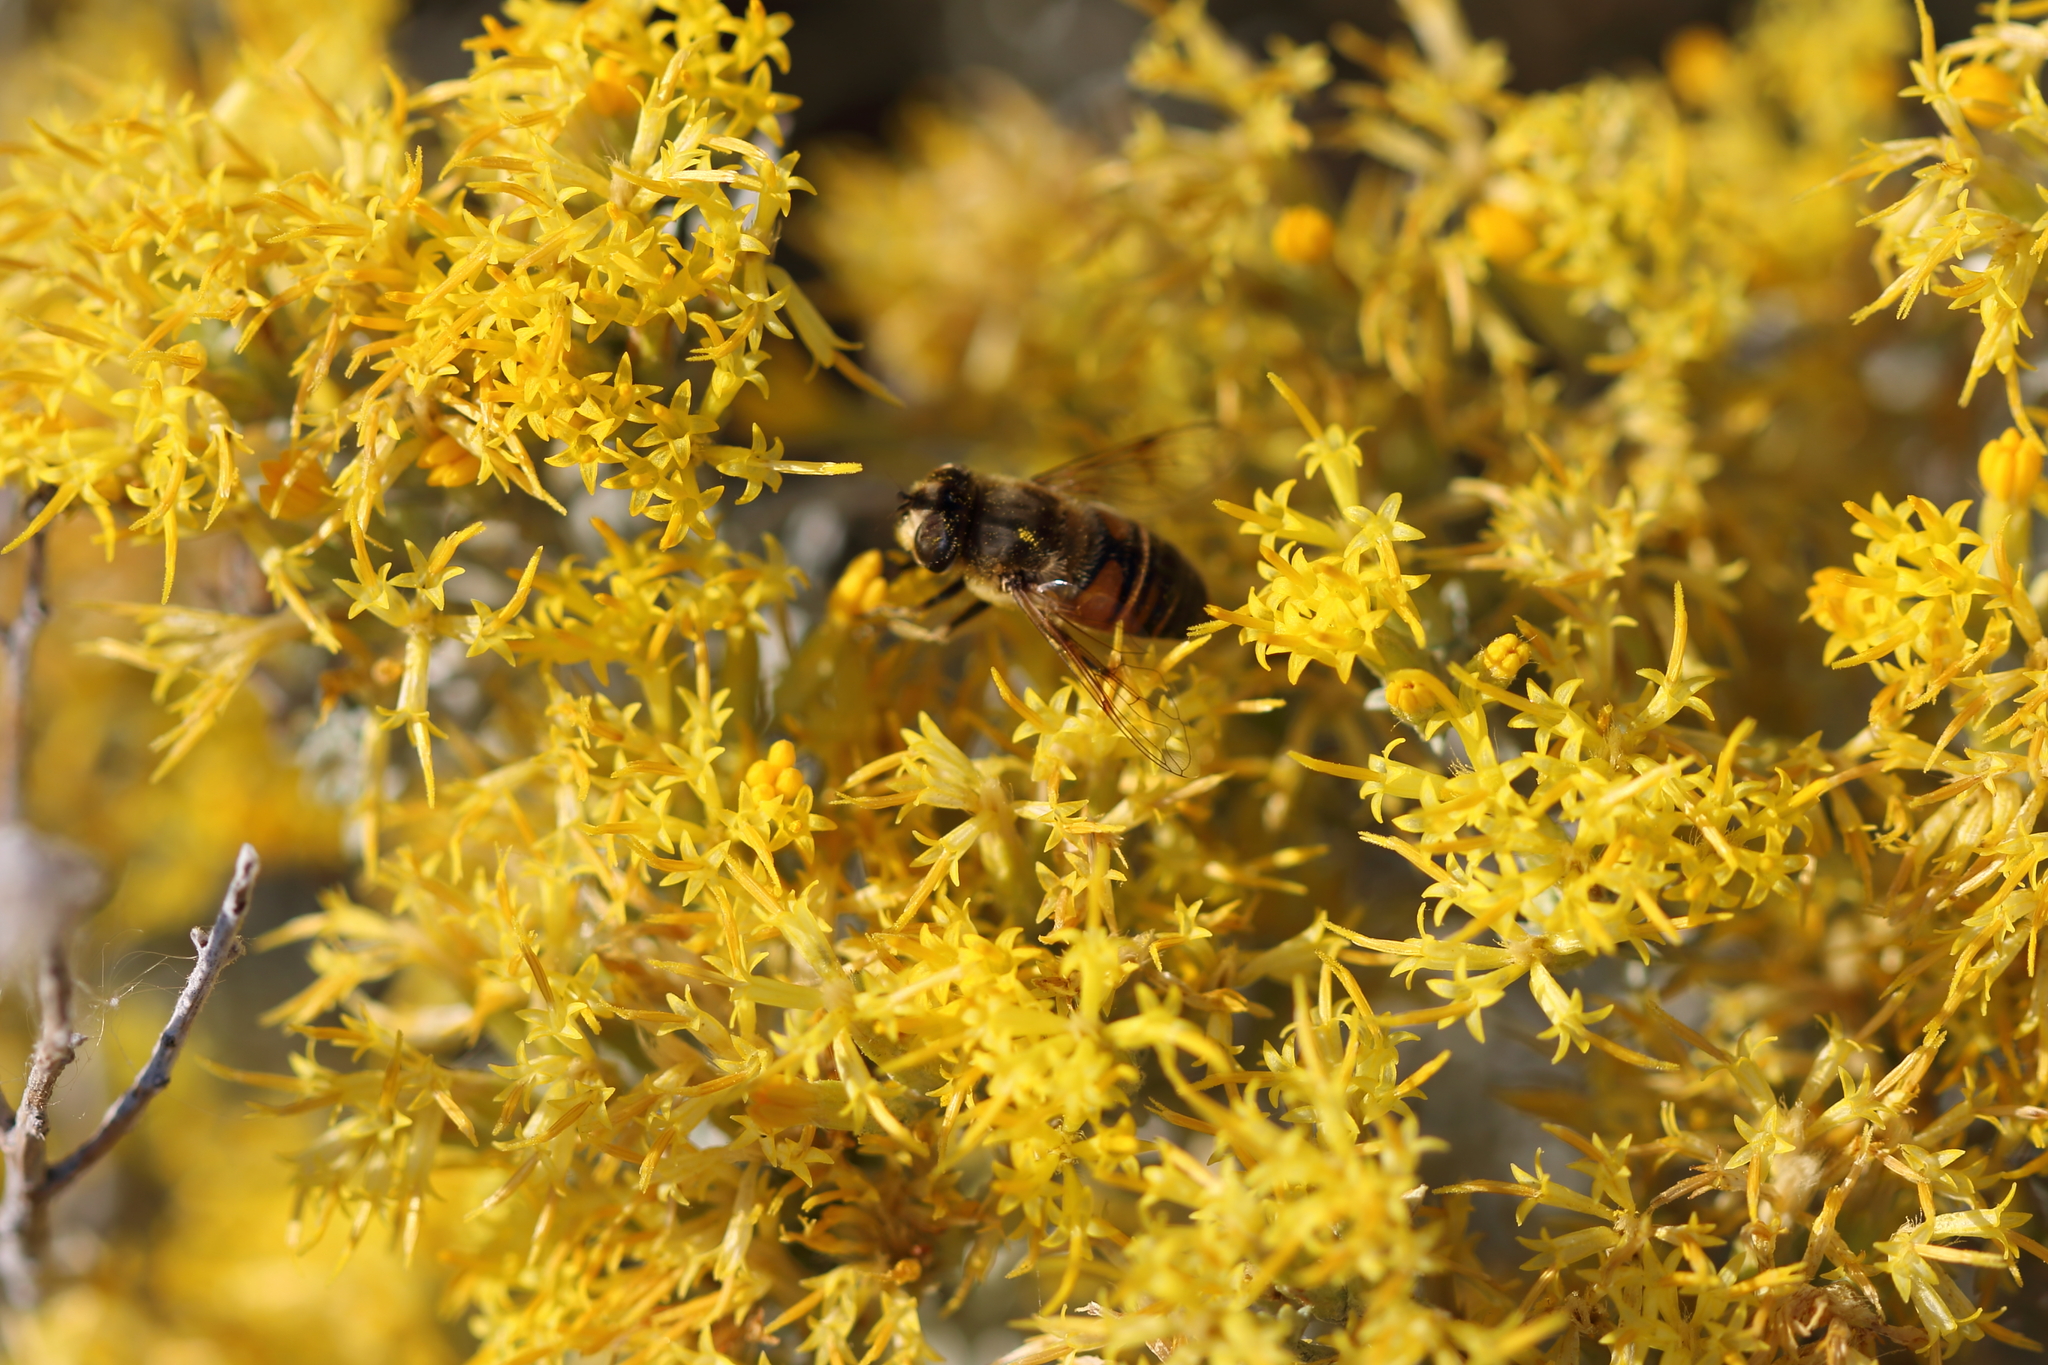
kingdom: Animalia
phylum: Arthropoda
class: Insecta
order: Diptera
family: Syrphidae
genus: Eristalis
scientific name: Eristalis tenax
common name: Drone fly
